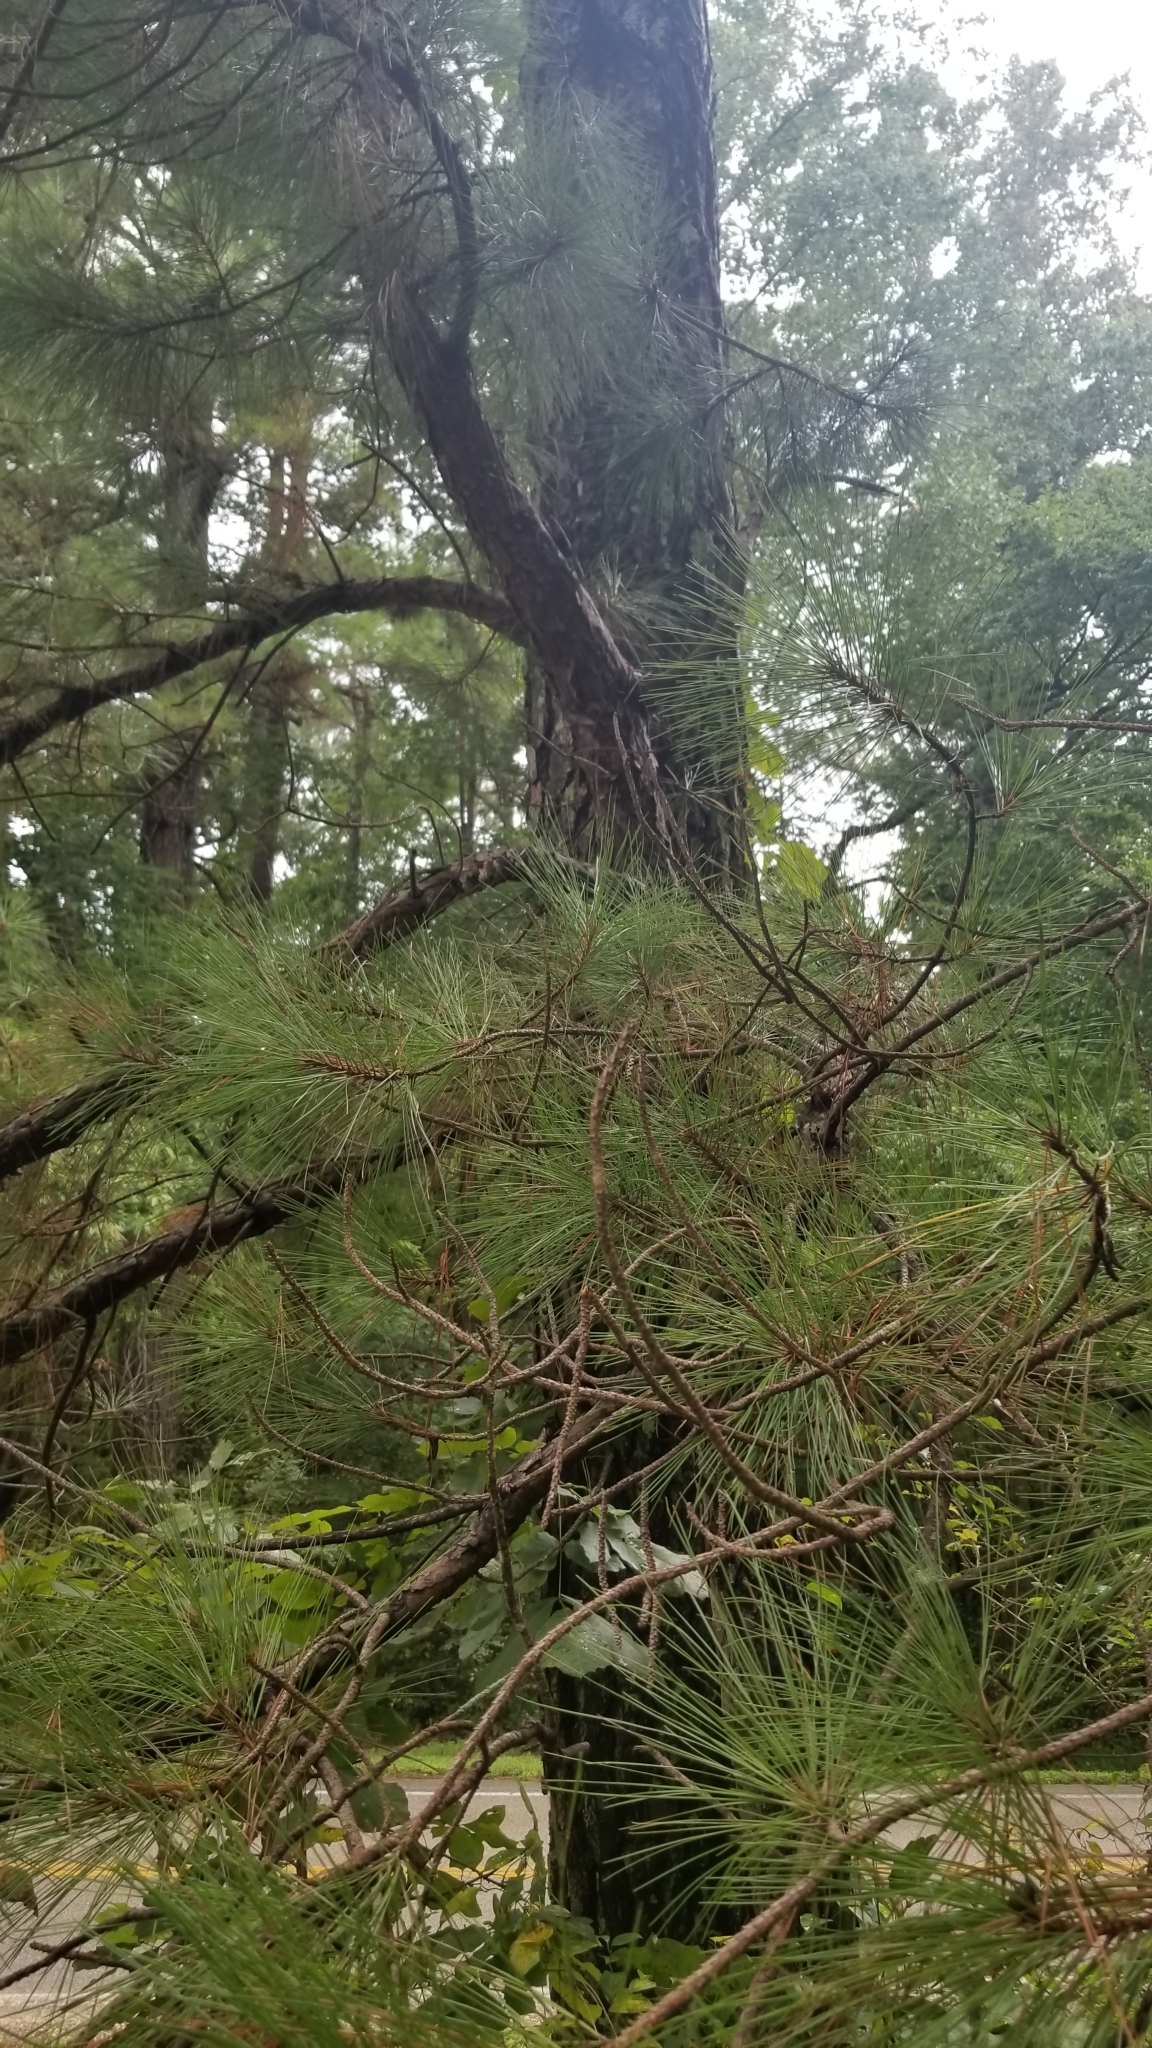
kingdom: Plantae
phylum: Tracheophyta
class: Pinopsida
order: Pinales
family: Pinaceae
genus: Pinus
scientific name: Pinus taeda
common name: Loblolly pine
